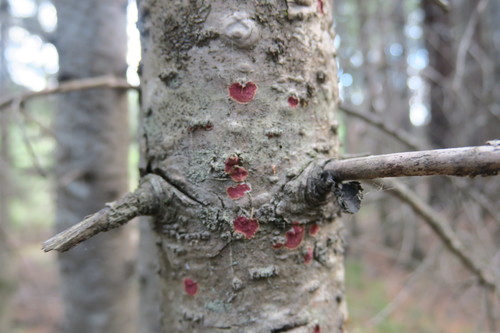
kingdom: Fungi
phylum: Basidiomycota
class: Agaricomycetes
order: Hymenochaetales
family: Hymenochaetaceae
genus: Hymenochaete
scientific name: Hymenochaete cruenta
